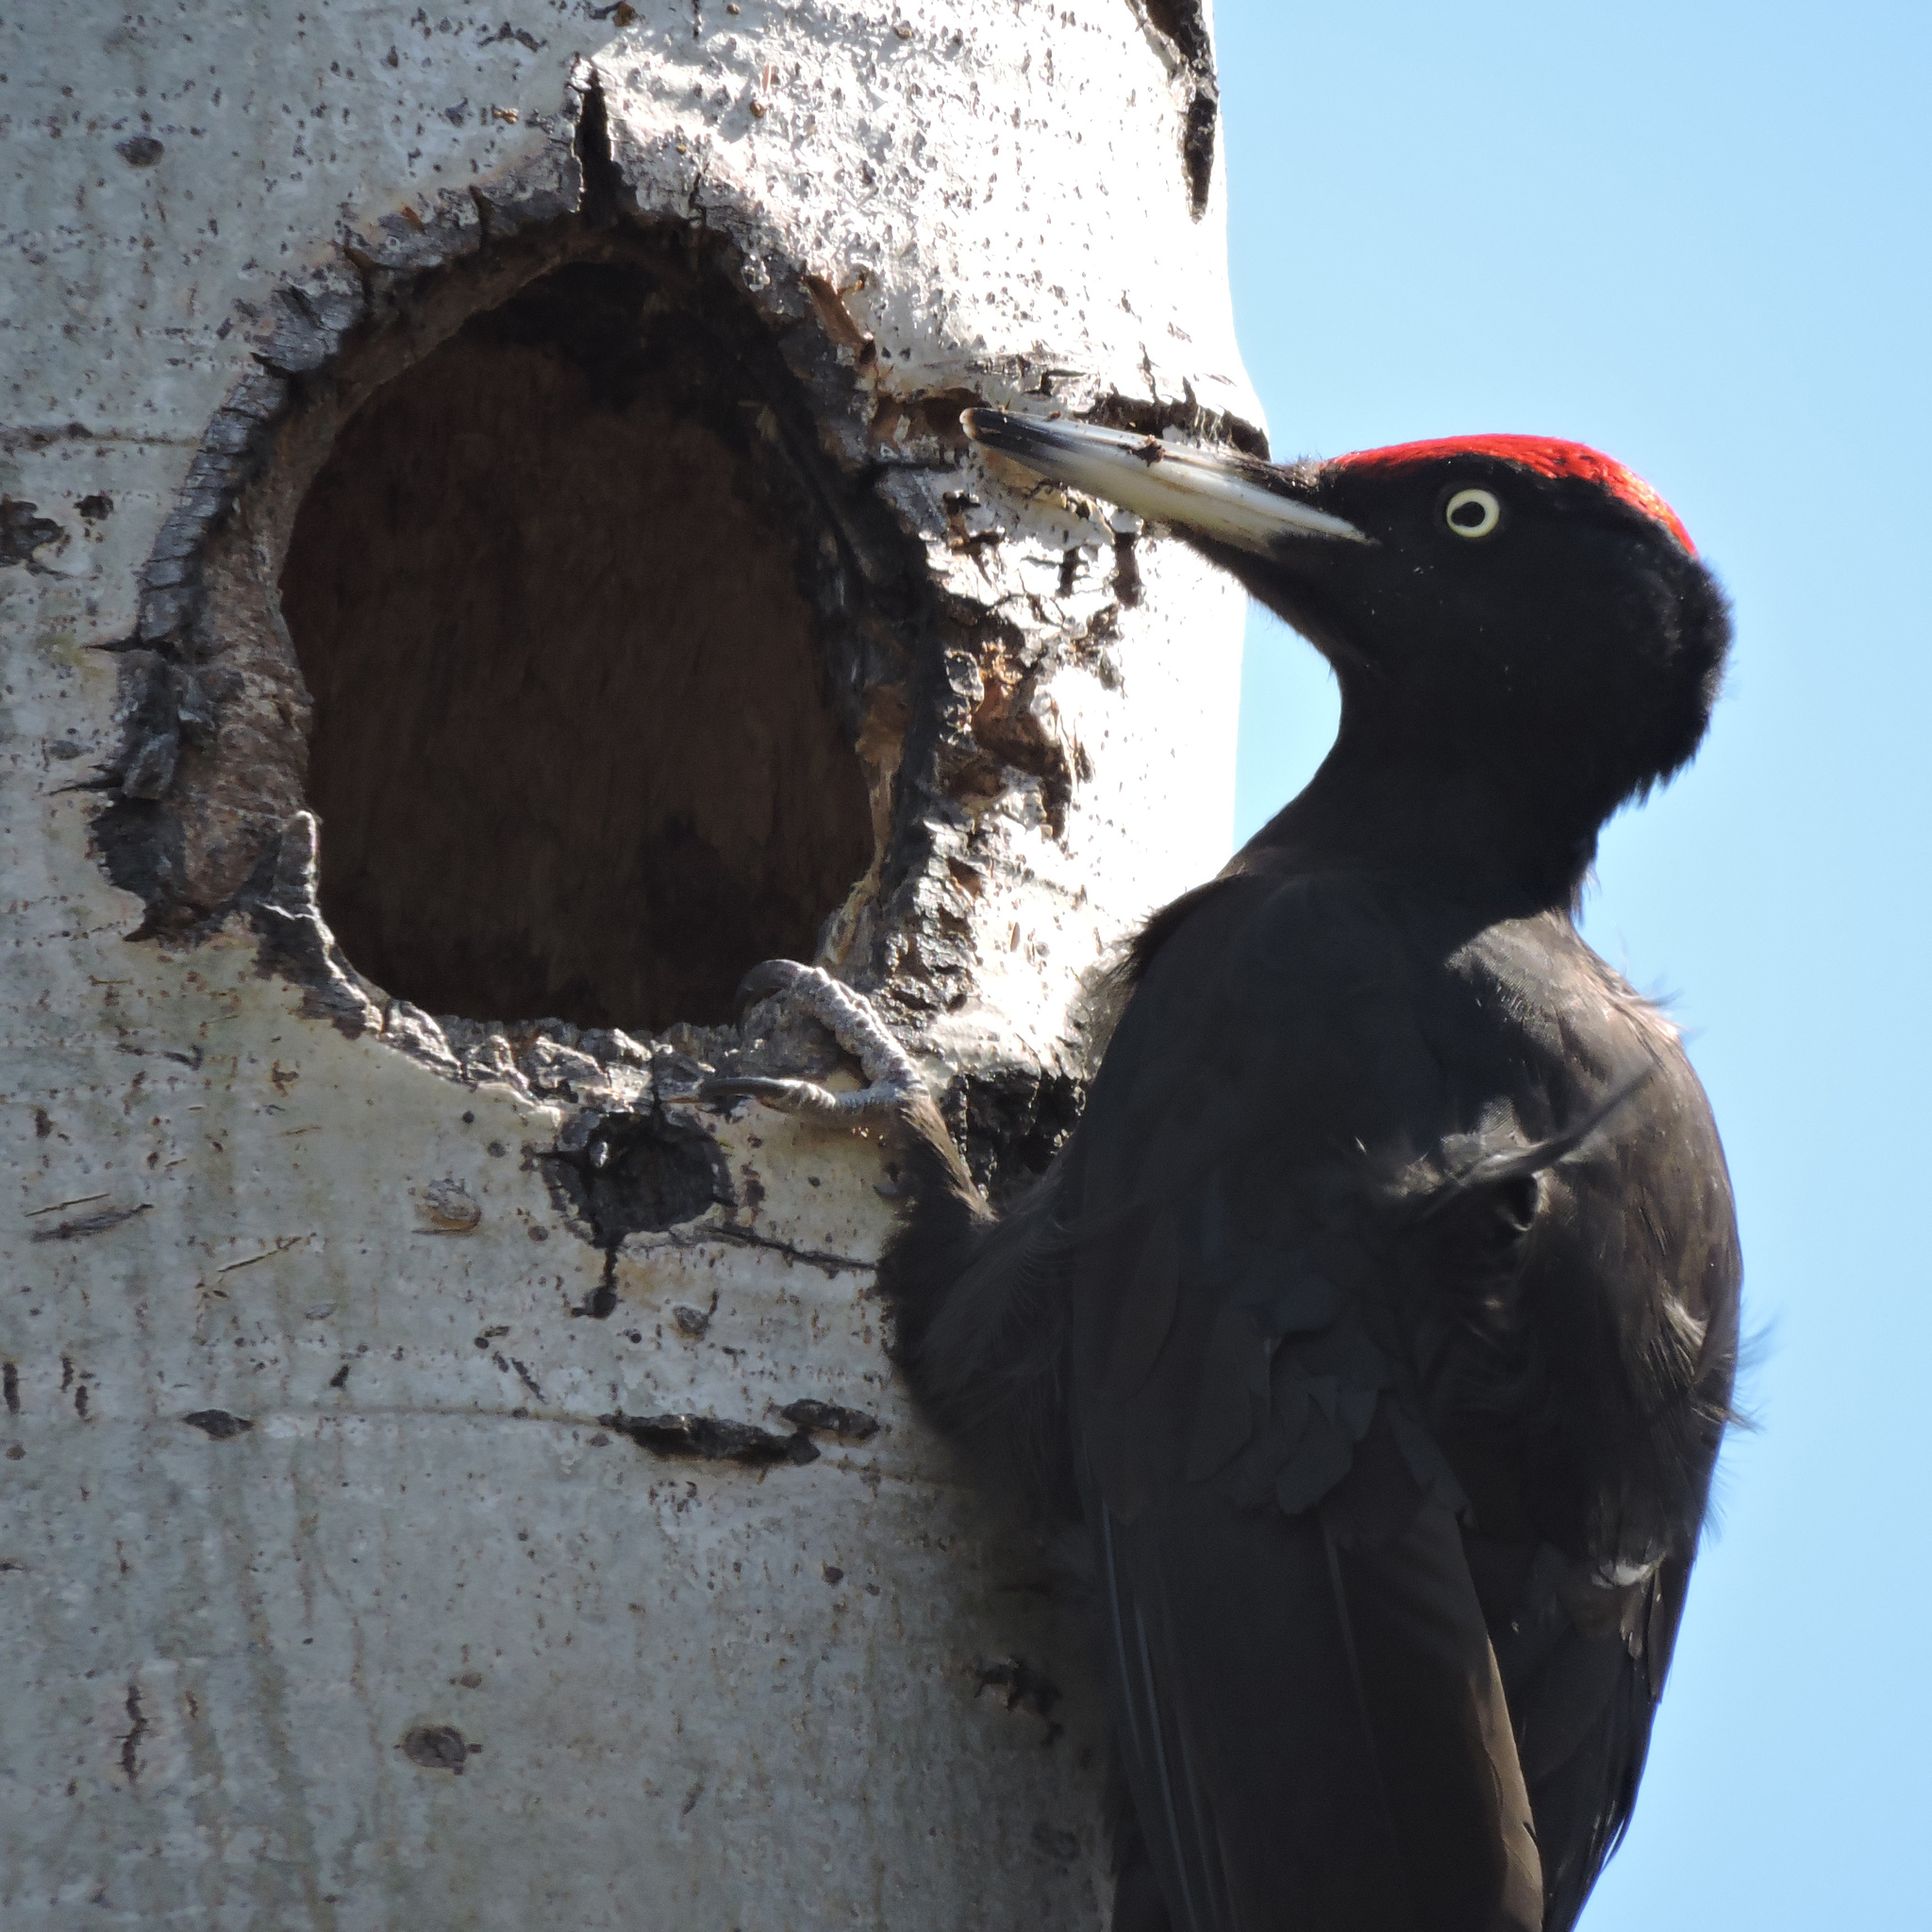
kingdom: Animalia
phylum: Chordata
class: Aves
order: Piciformes
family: Picidae
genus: Dryocopus
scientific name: Dryocopus martius
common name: Black woodpecker
